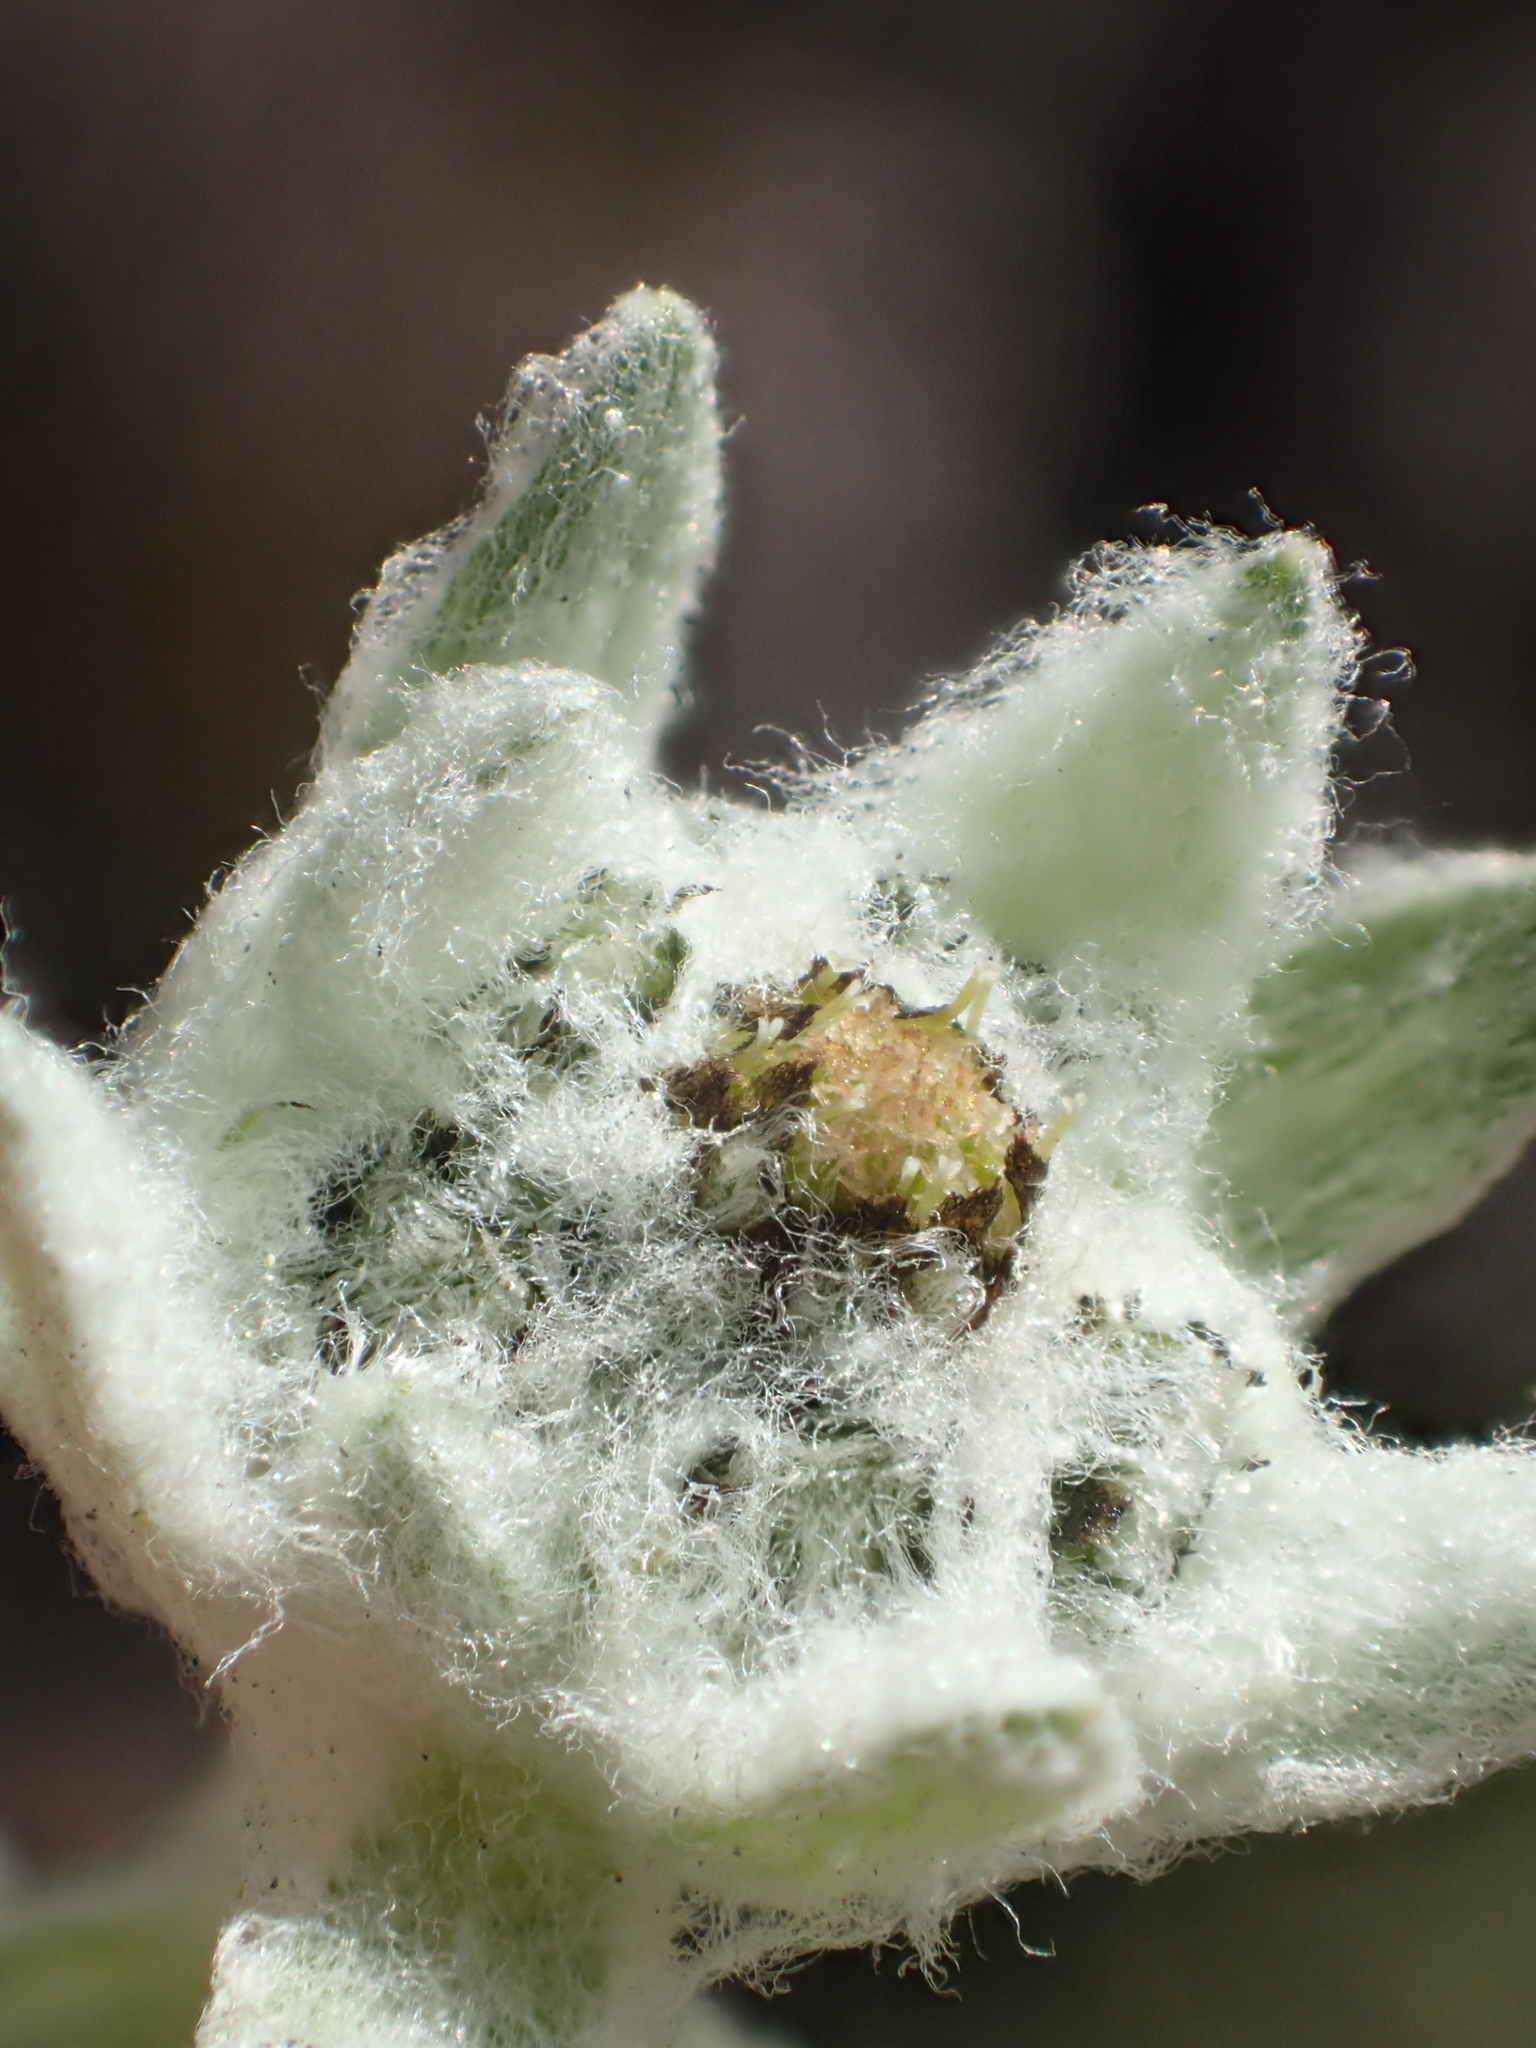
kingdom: Plantae
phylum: Tracheophyta
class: Magnoliopsida
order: Asterales
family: Asteraceae
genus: Leontopodium
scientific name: Leontopodium microphyllum
